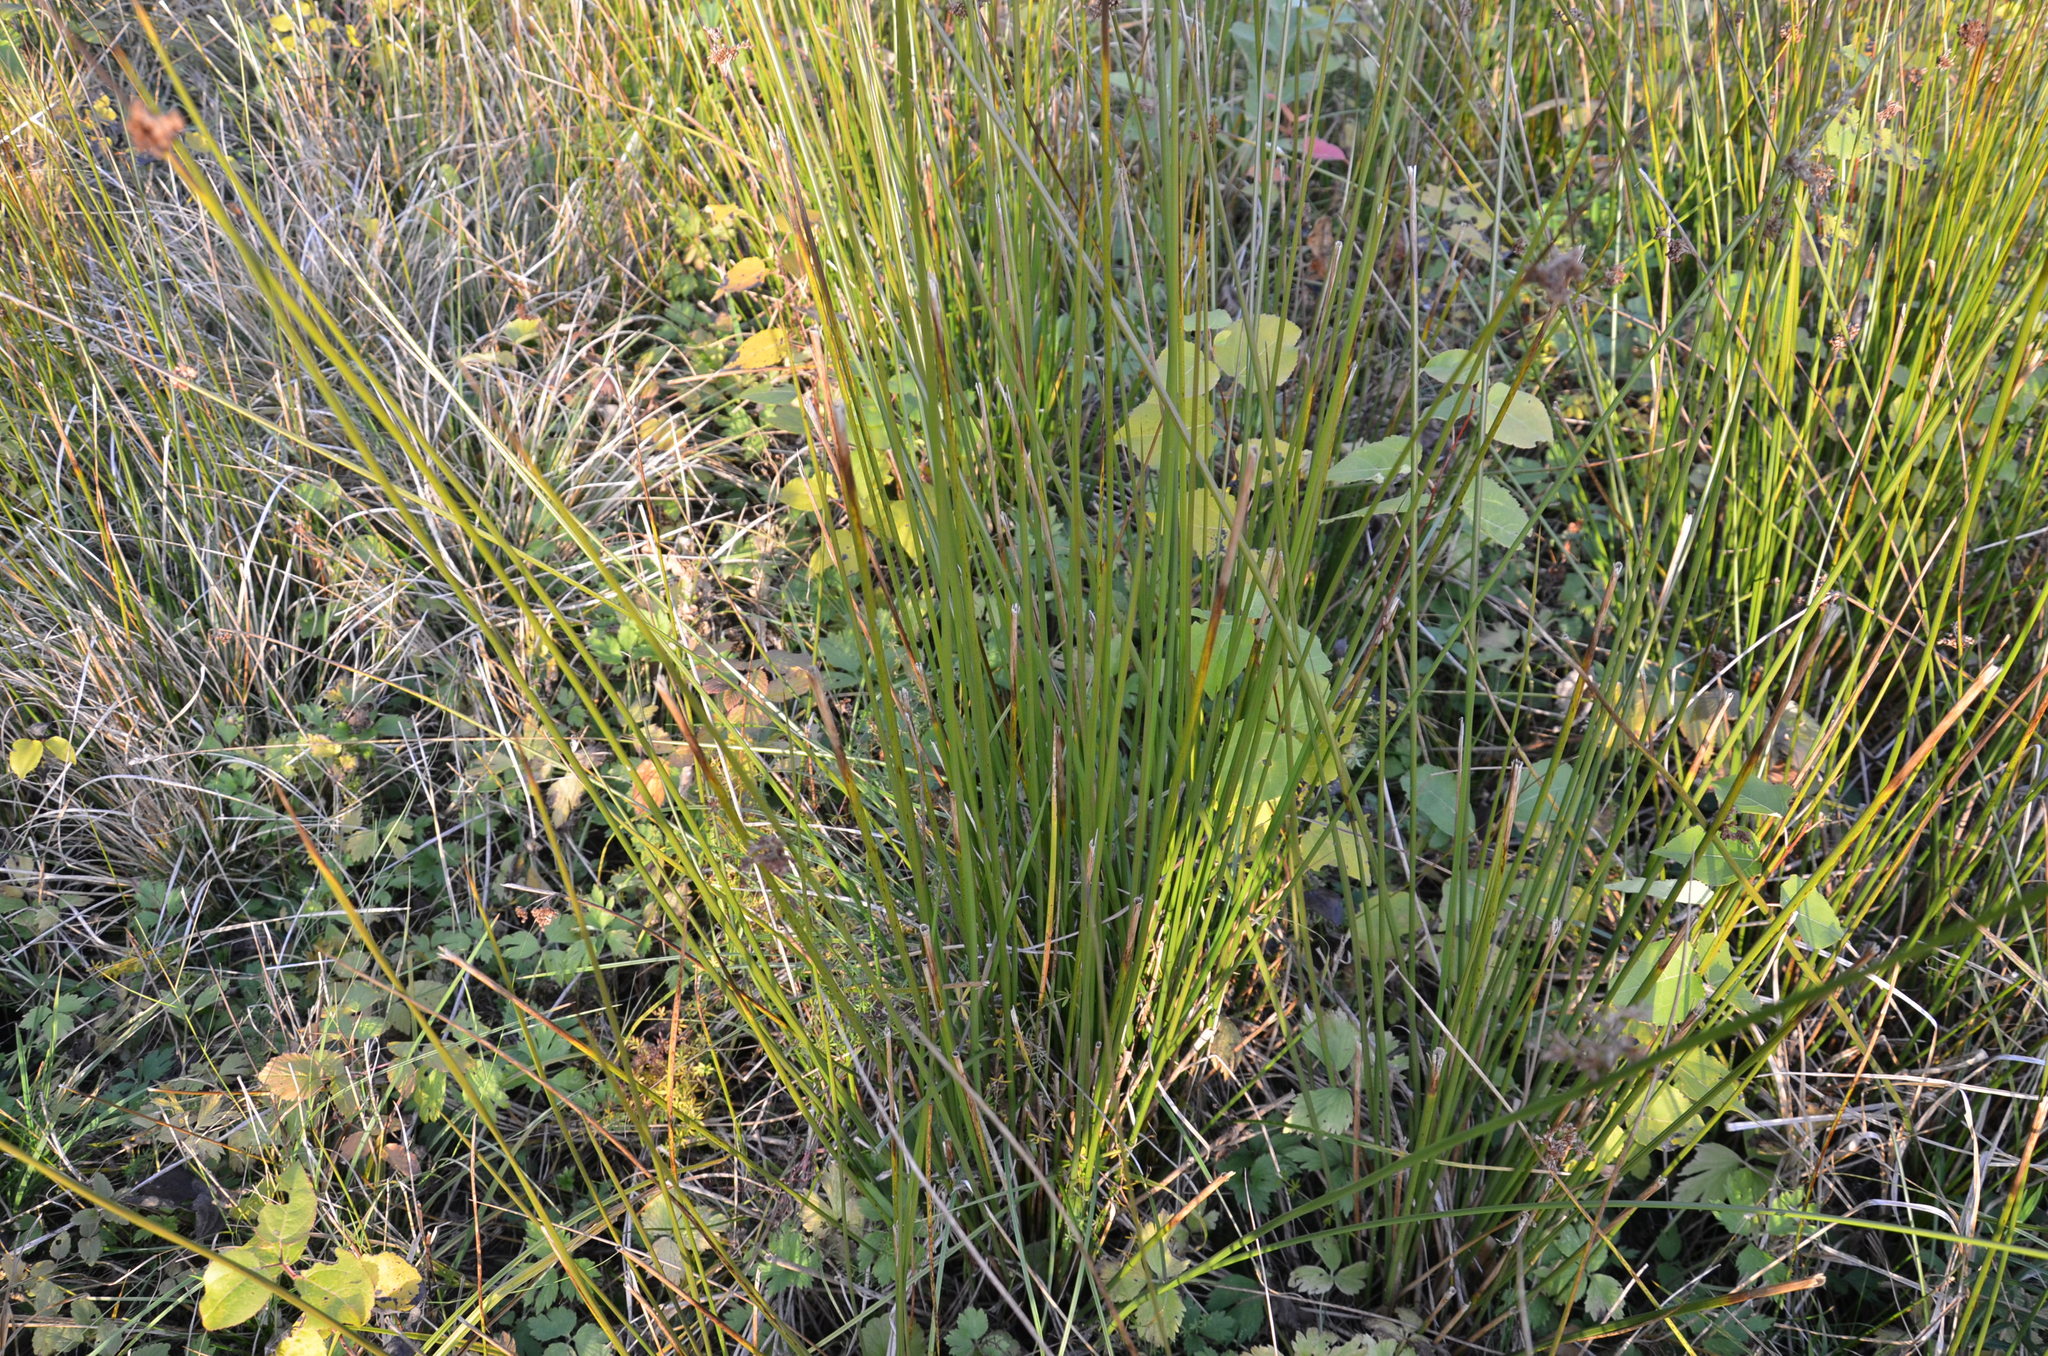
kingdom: Plantae
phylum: Tracheophyta
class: Liliopsida
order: Poales
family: Juncaceae
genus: Juncus
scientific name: Juncus effusus
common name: Soft rush
